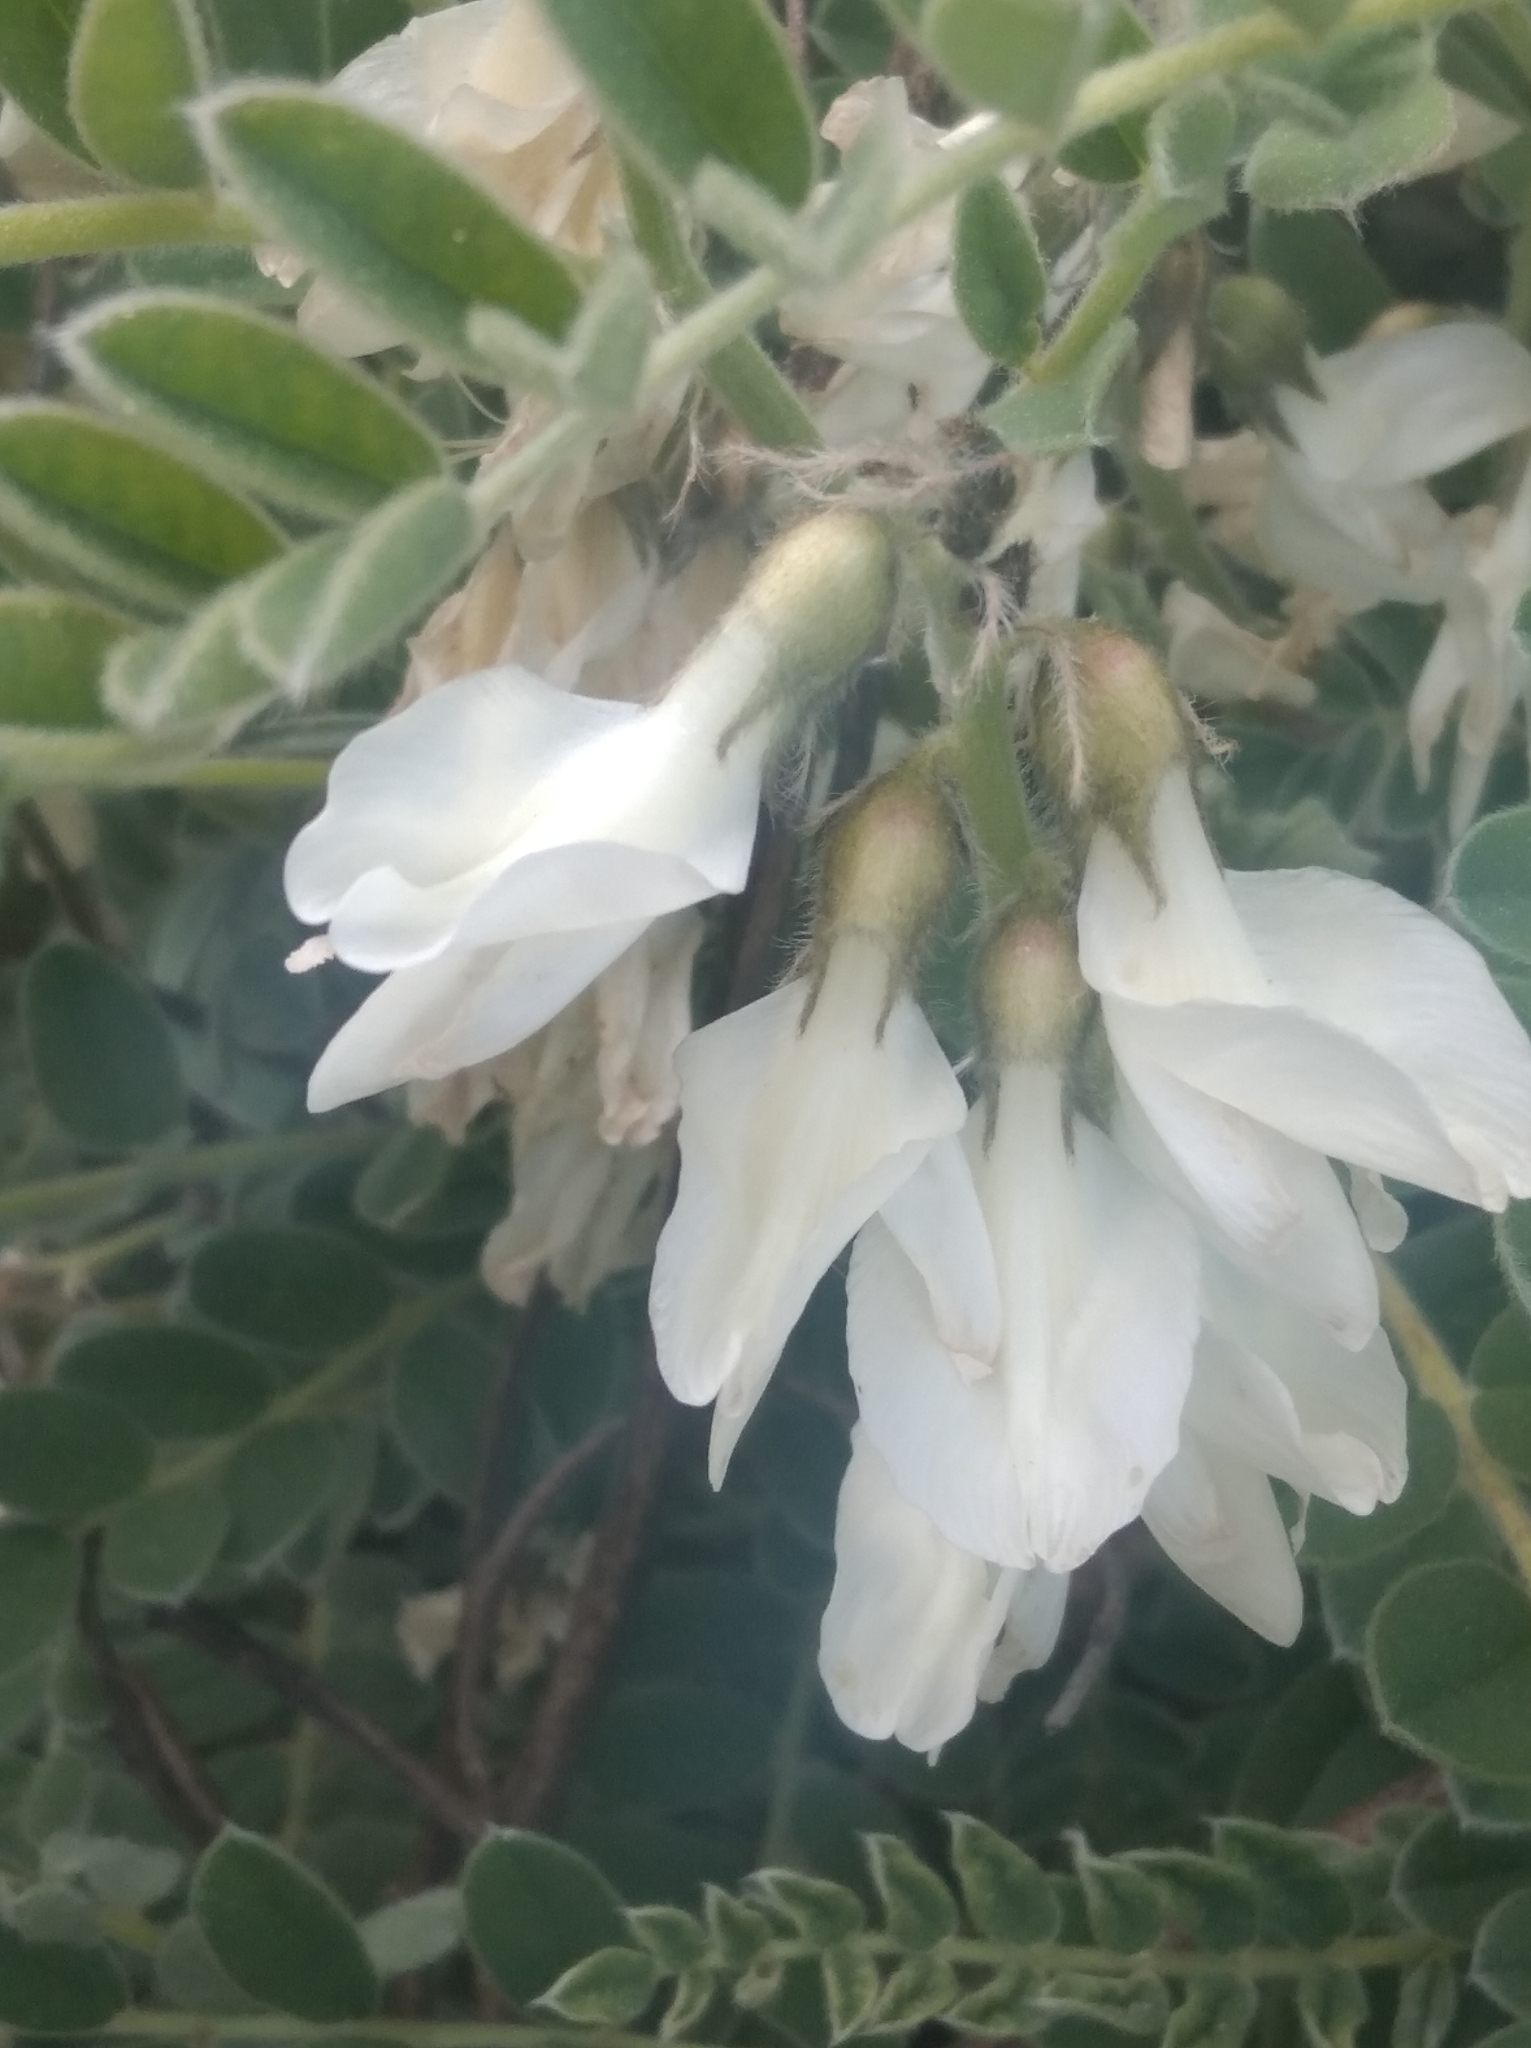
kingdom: Plantae
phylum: Tracheophyta
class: Magnoliopsida
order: Fabales
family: Fabaceae
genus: Erophaca
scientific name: Erophaca baetica
